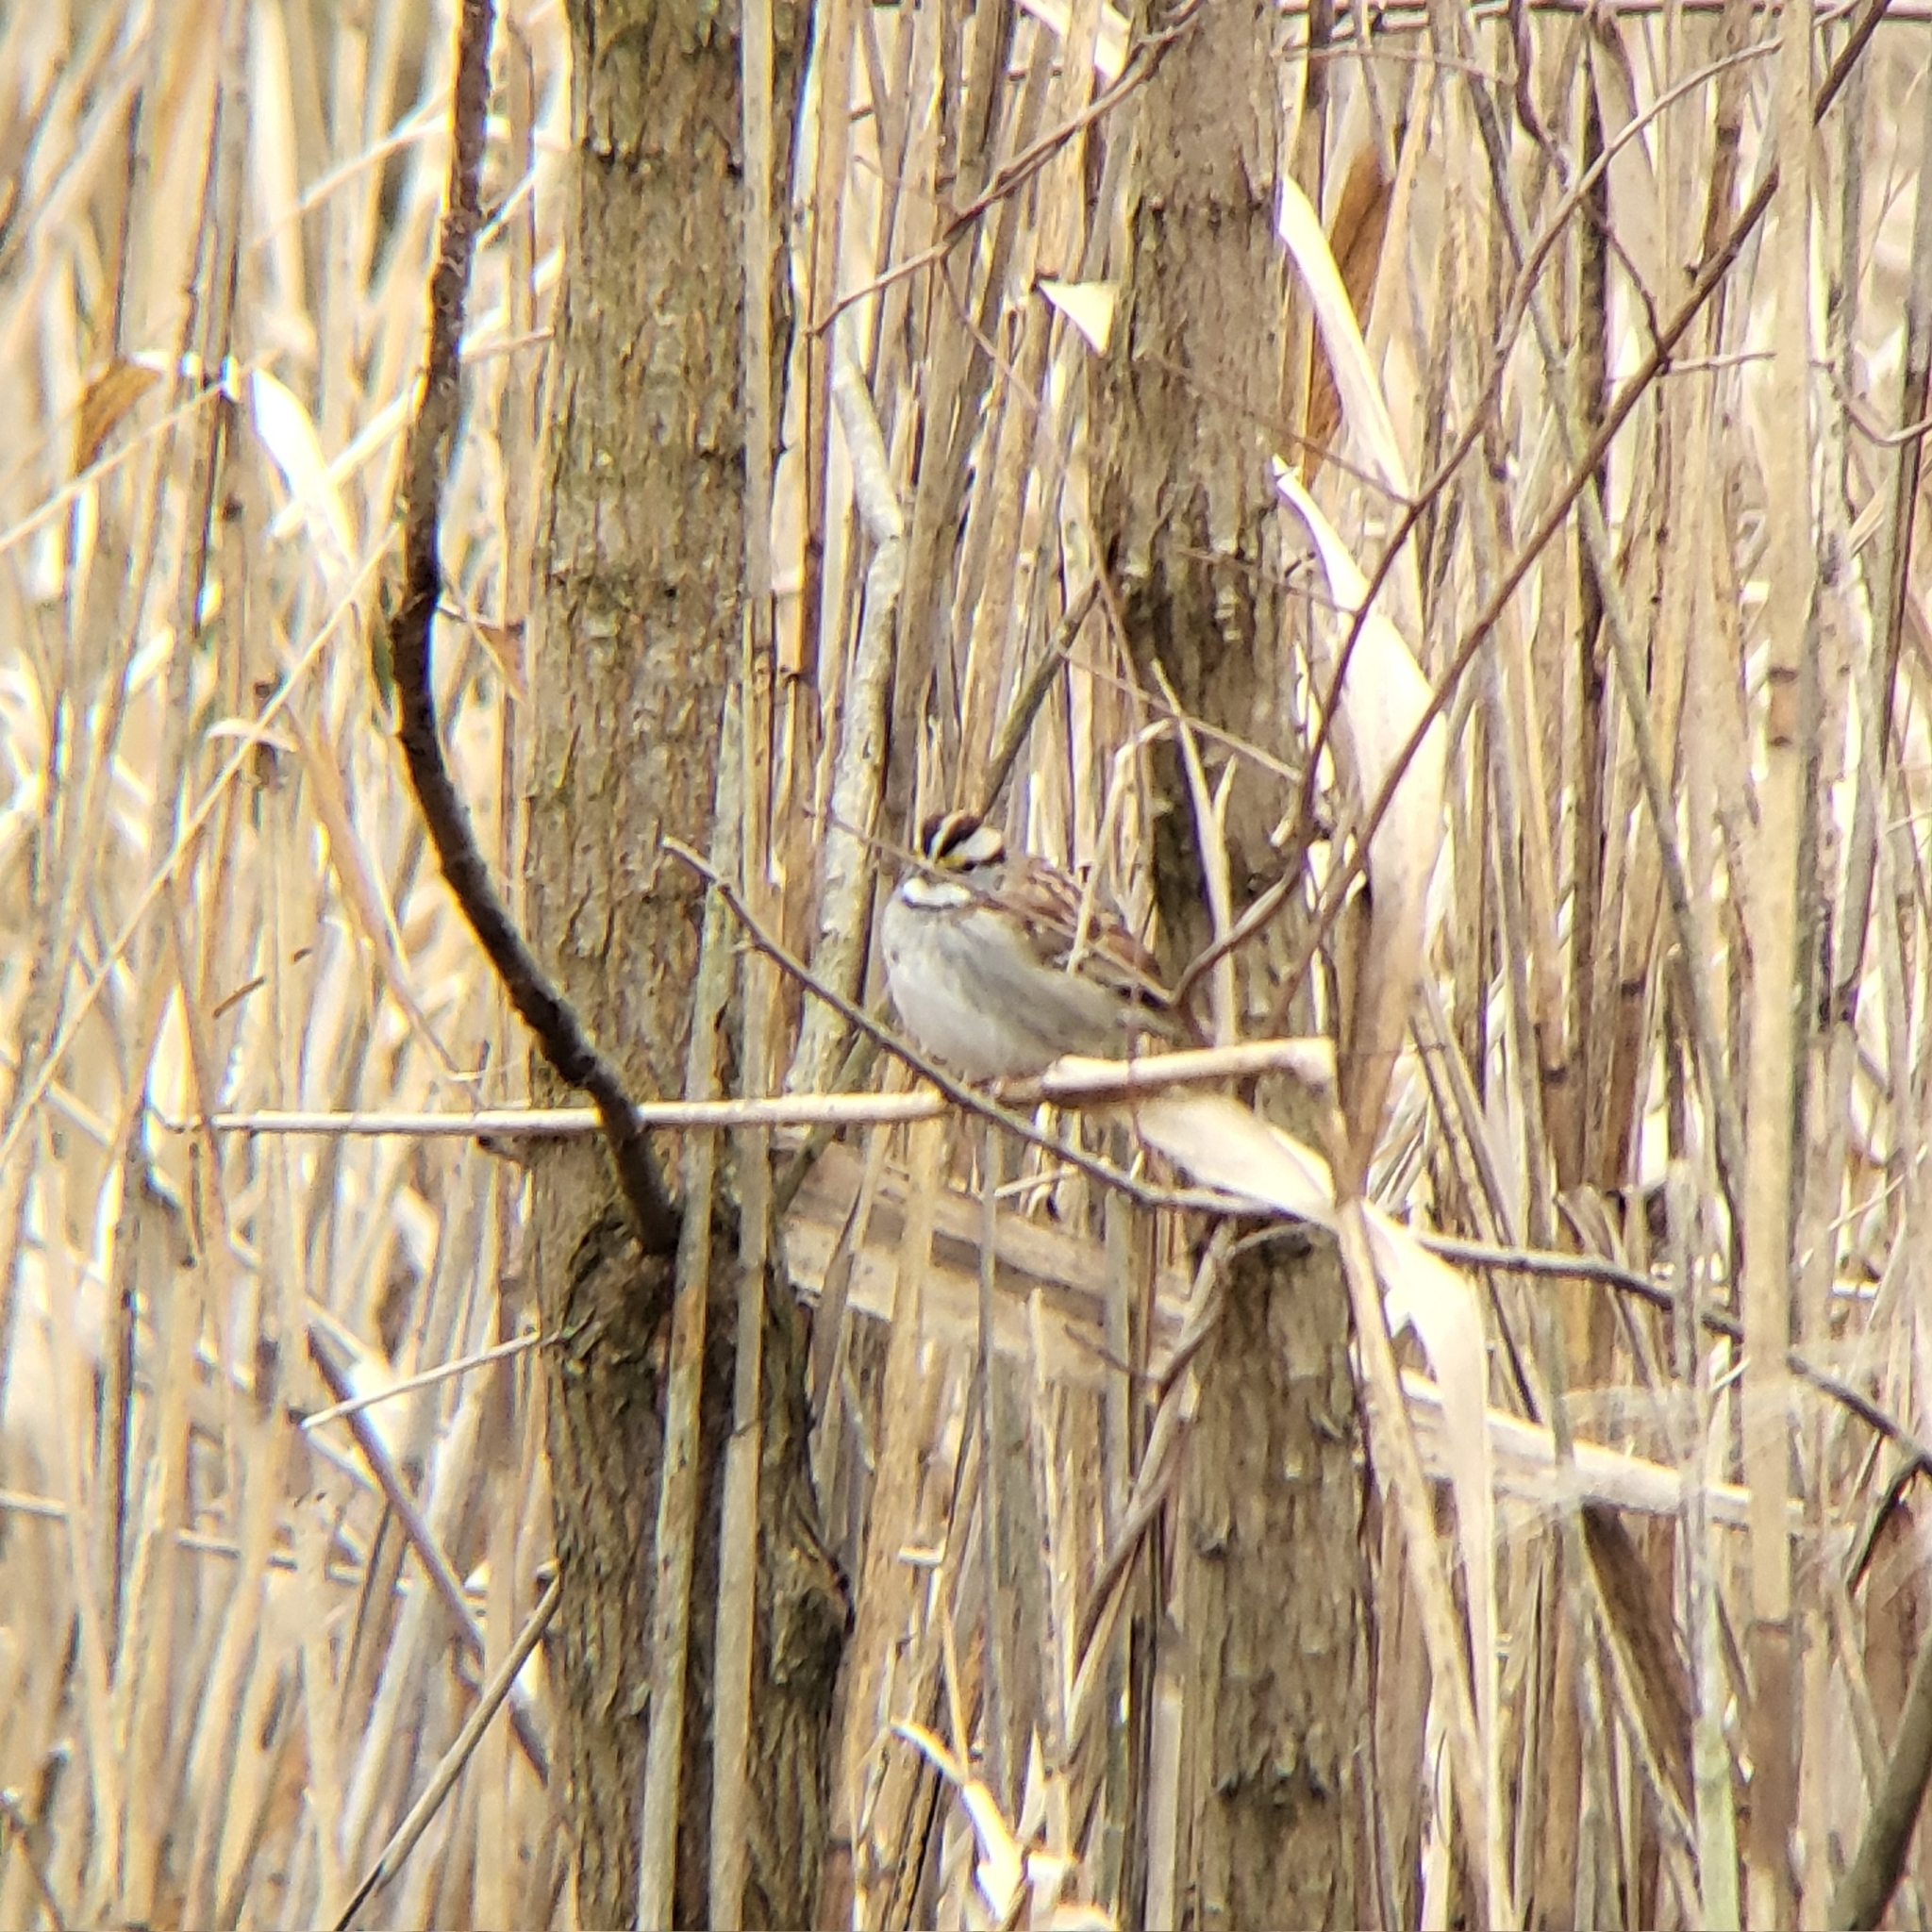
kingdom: Animalia
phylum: Chordata
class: Aves
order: Passeriformes
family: Passerellidae
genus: Zonotrichia
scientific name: Zonotrichia albicollis
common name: White-throated sparrow
